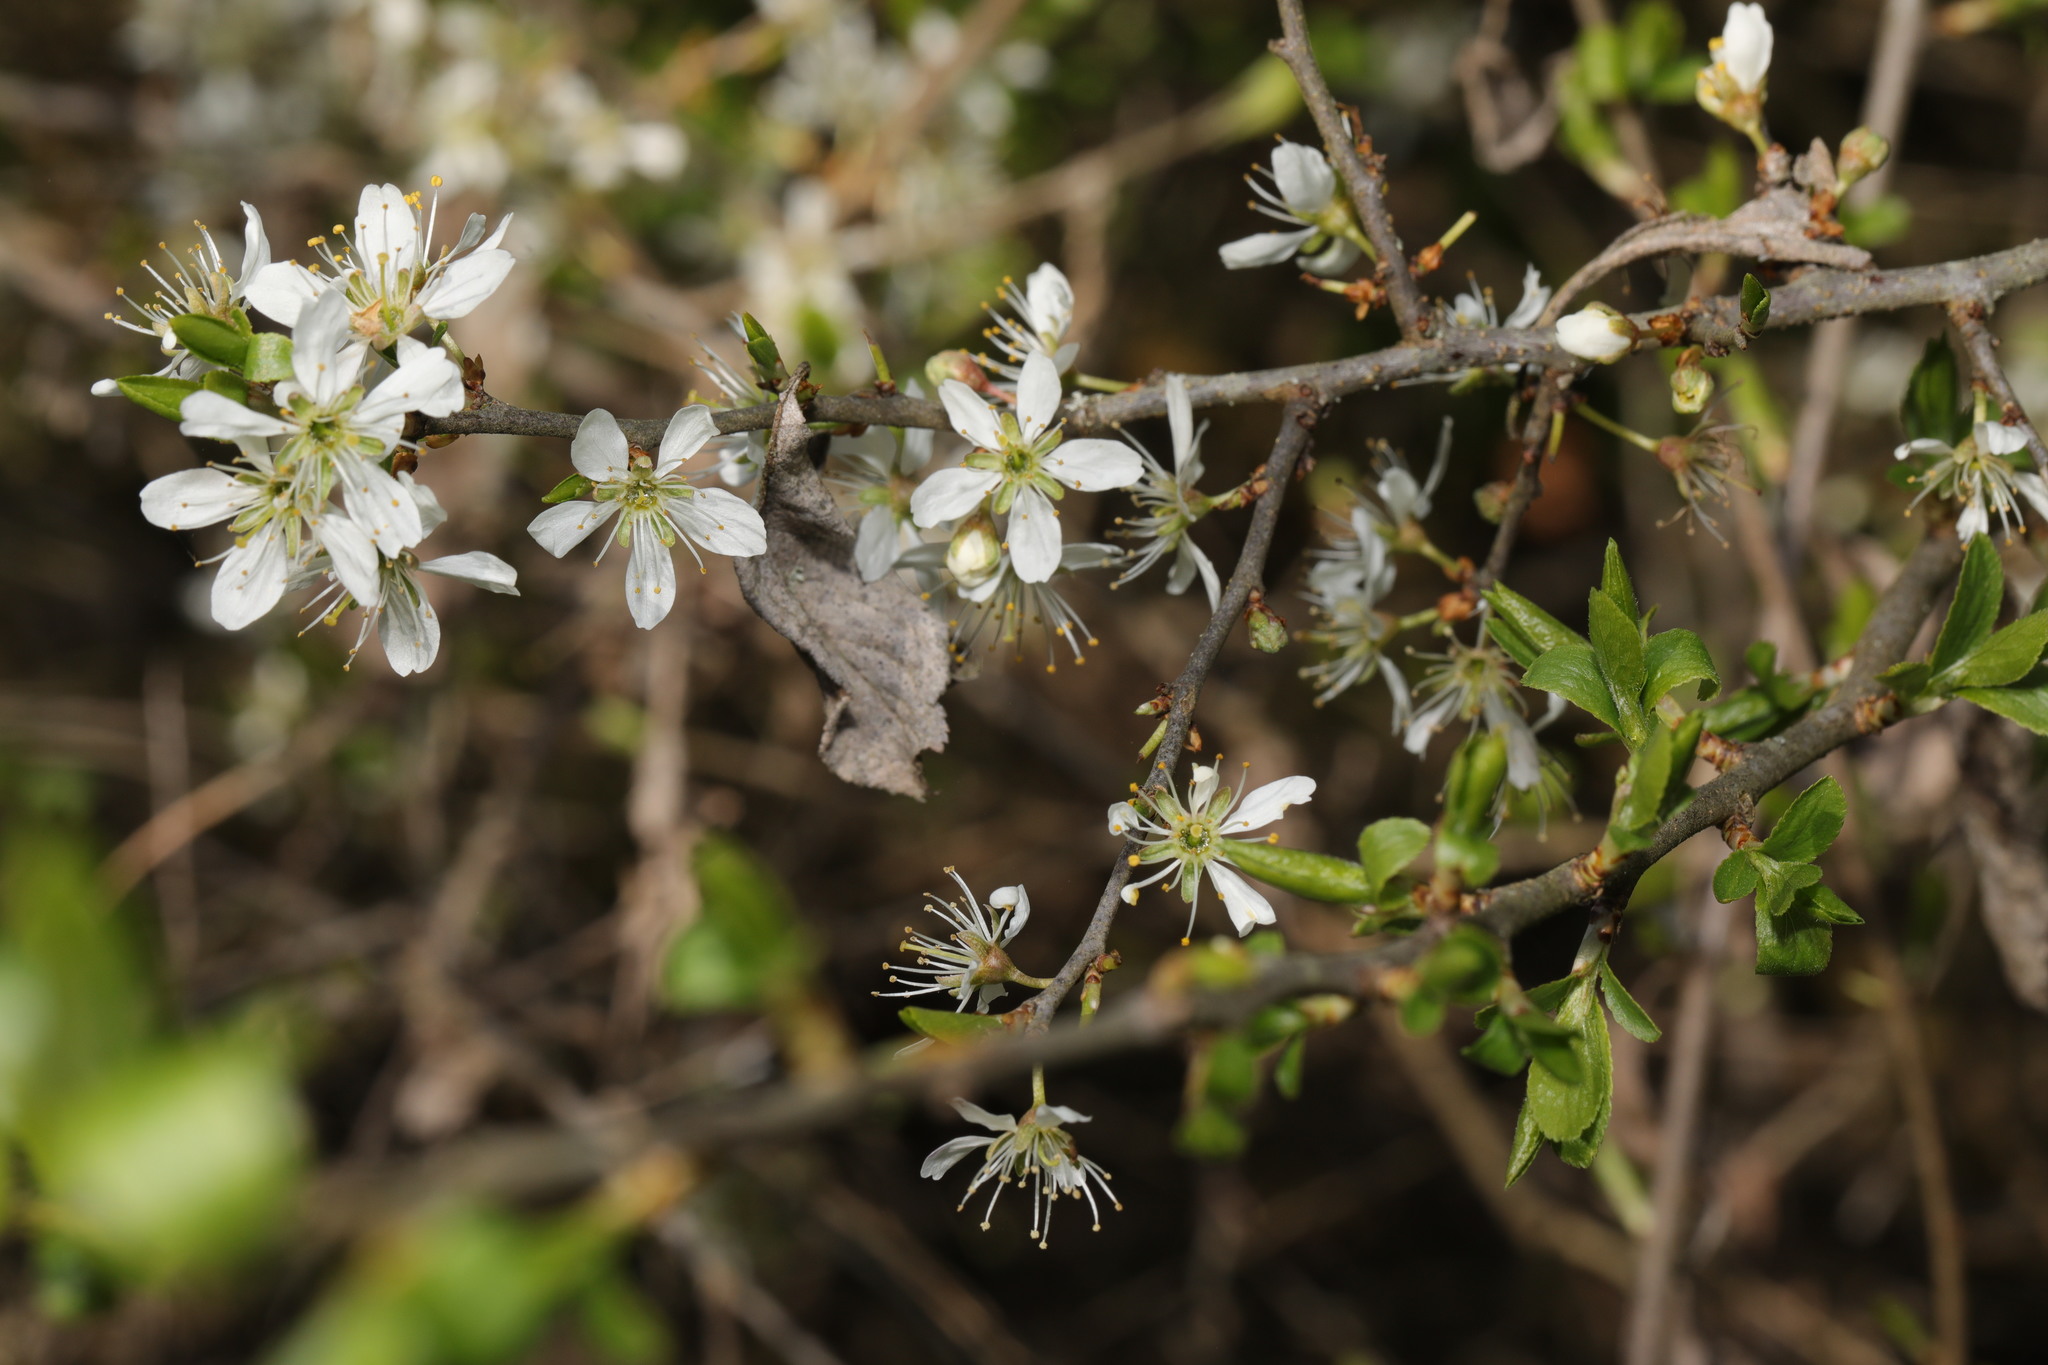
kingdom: Plantae
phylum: Tracheophyta
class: Magnoliopsida
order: Rosales
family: Rosaceae
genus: Prunus
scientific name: Prunus spinosa
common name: Blackthorn
